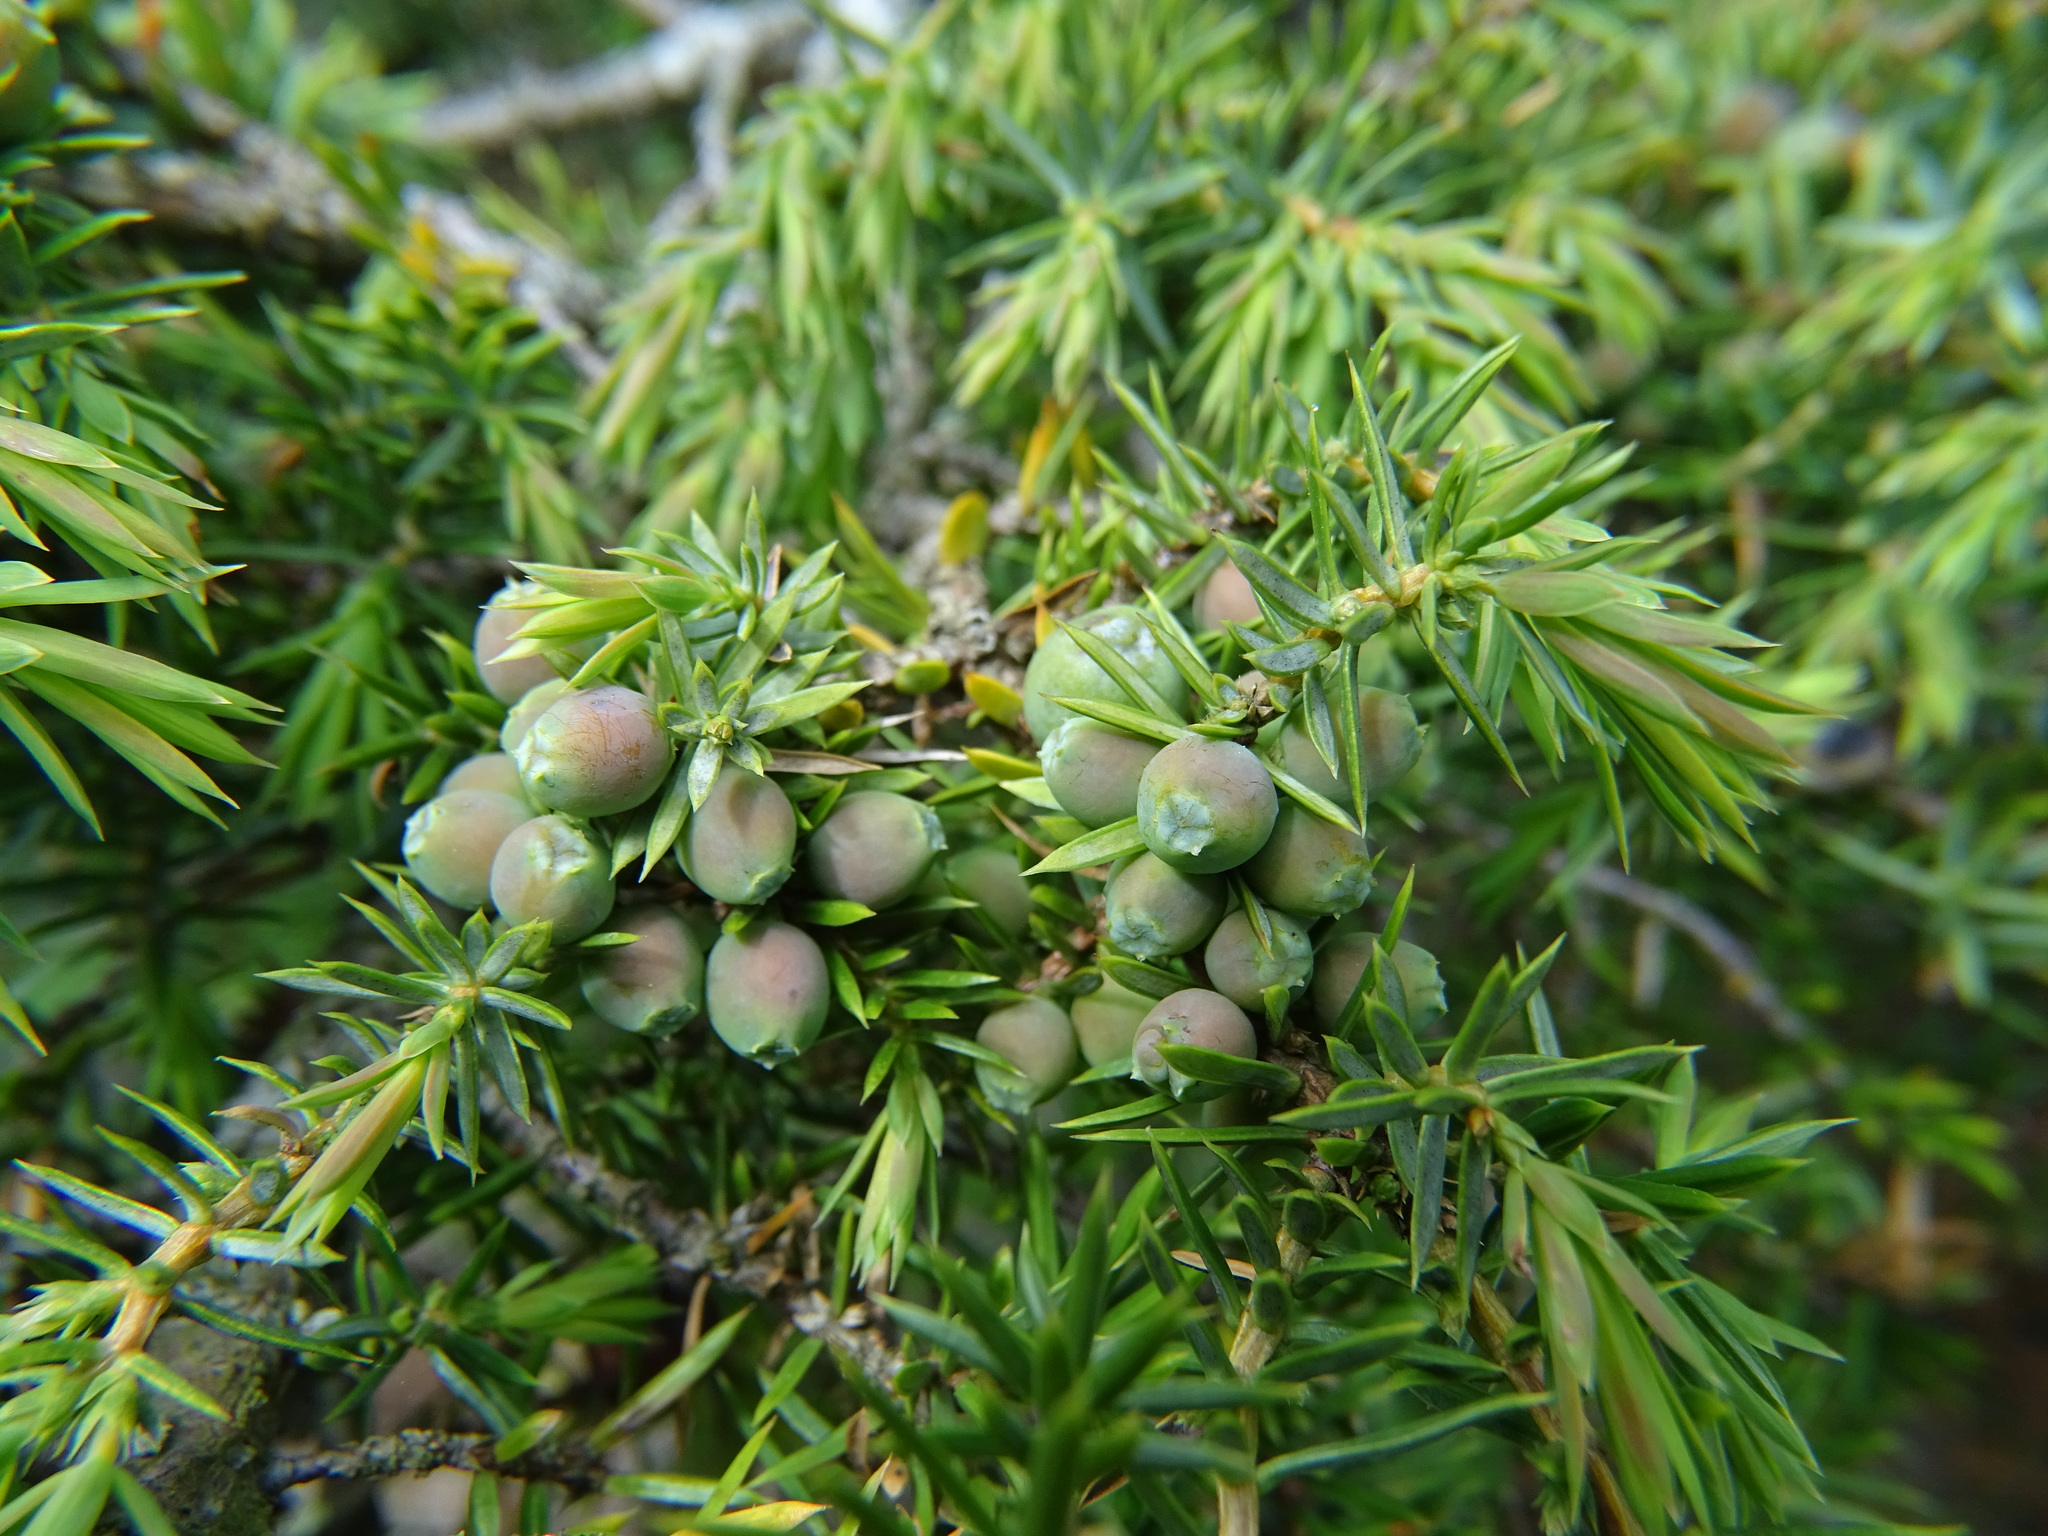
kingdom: Plantae
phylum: Tracheophyta
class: Pinopsida
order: Pinales
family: Cupressaceae
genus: Juniperus
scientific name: Juniperus communis
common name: Common juniper
